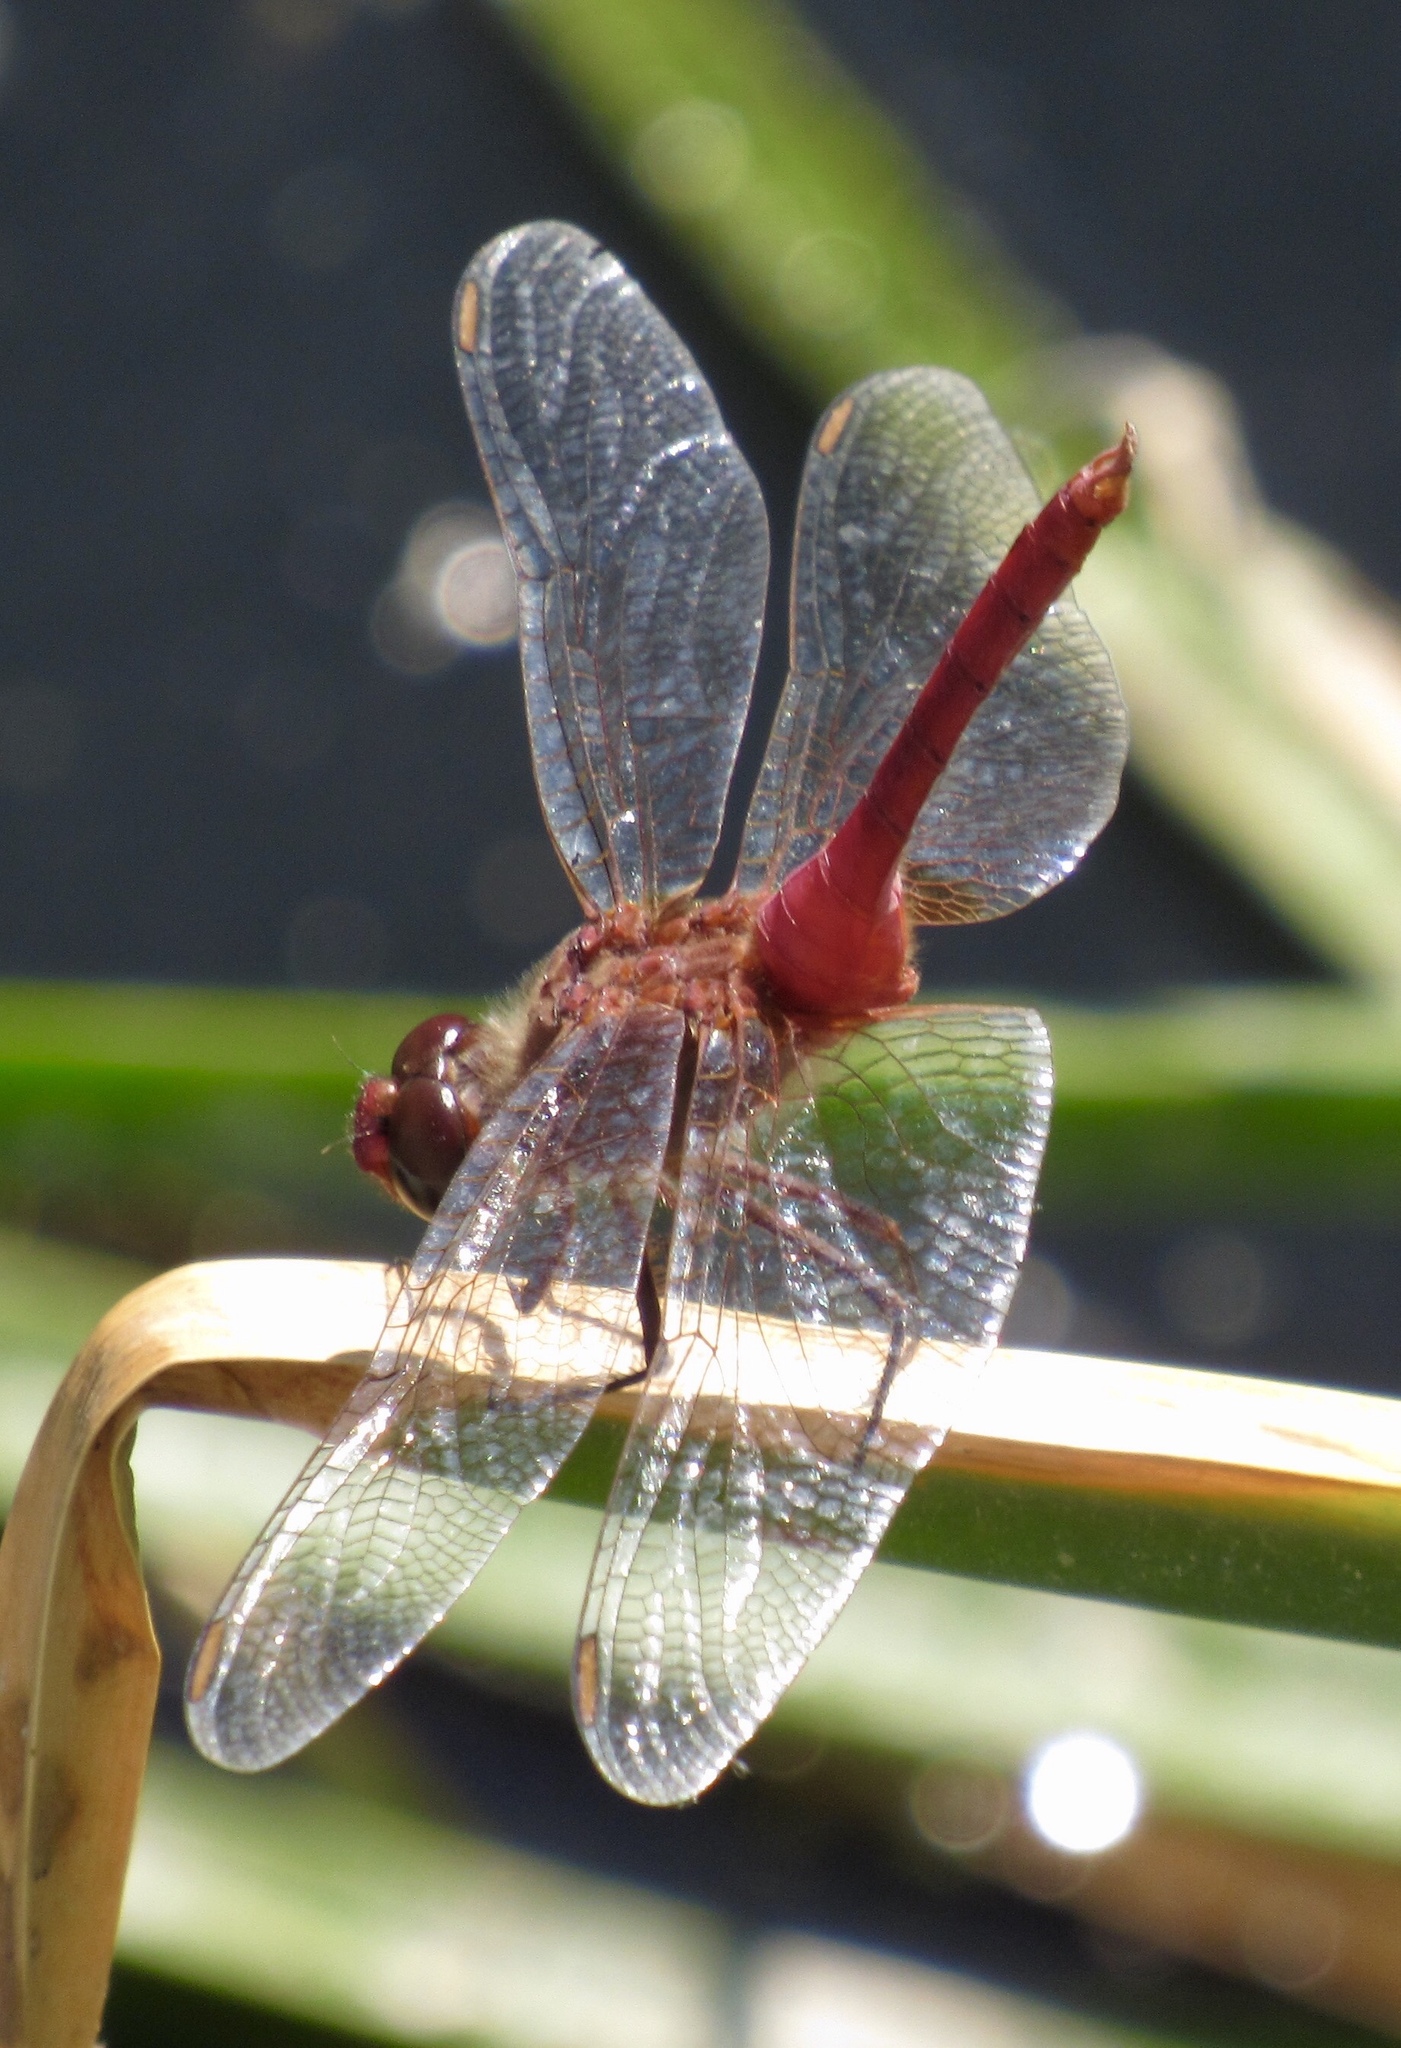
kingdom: Animalia
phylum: Arthropoda
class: Insecta
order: Odonata
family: Libellulidae
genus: Brachymesia
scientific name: Brachymesia furcata
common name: Red-taled pennant
